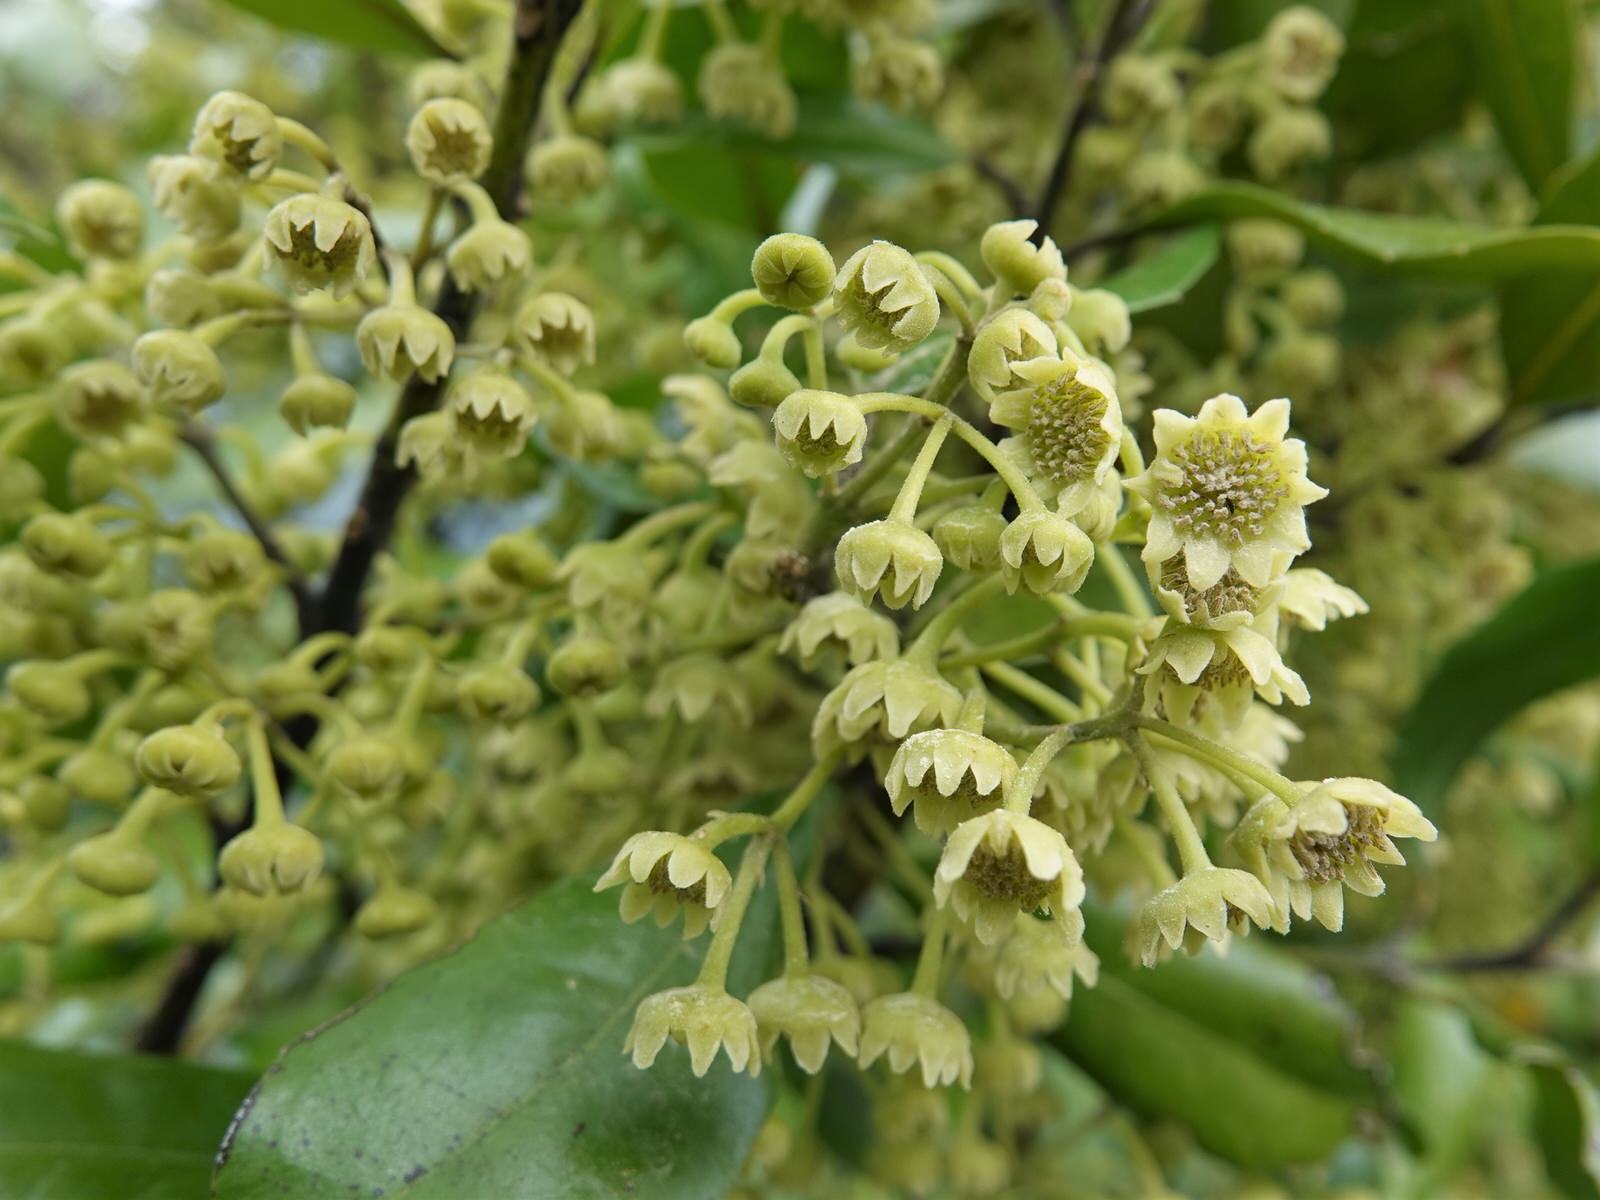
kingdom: Plantae
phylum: Tracheophyta
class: Magnoliopsida
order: Laurales
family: Monimiaceae
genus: Hedycarya
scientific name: Hedycarya arborea
